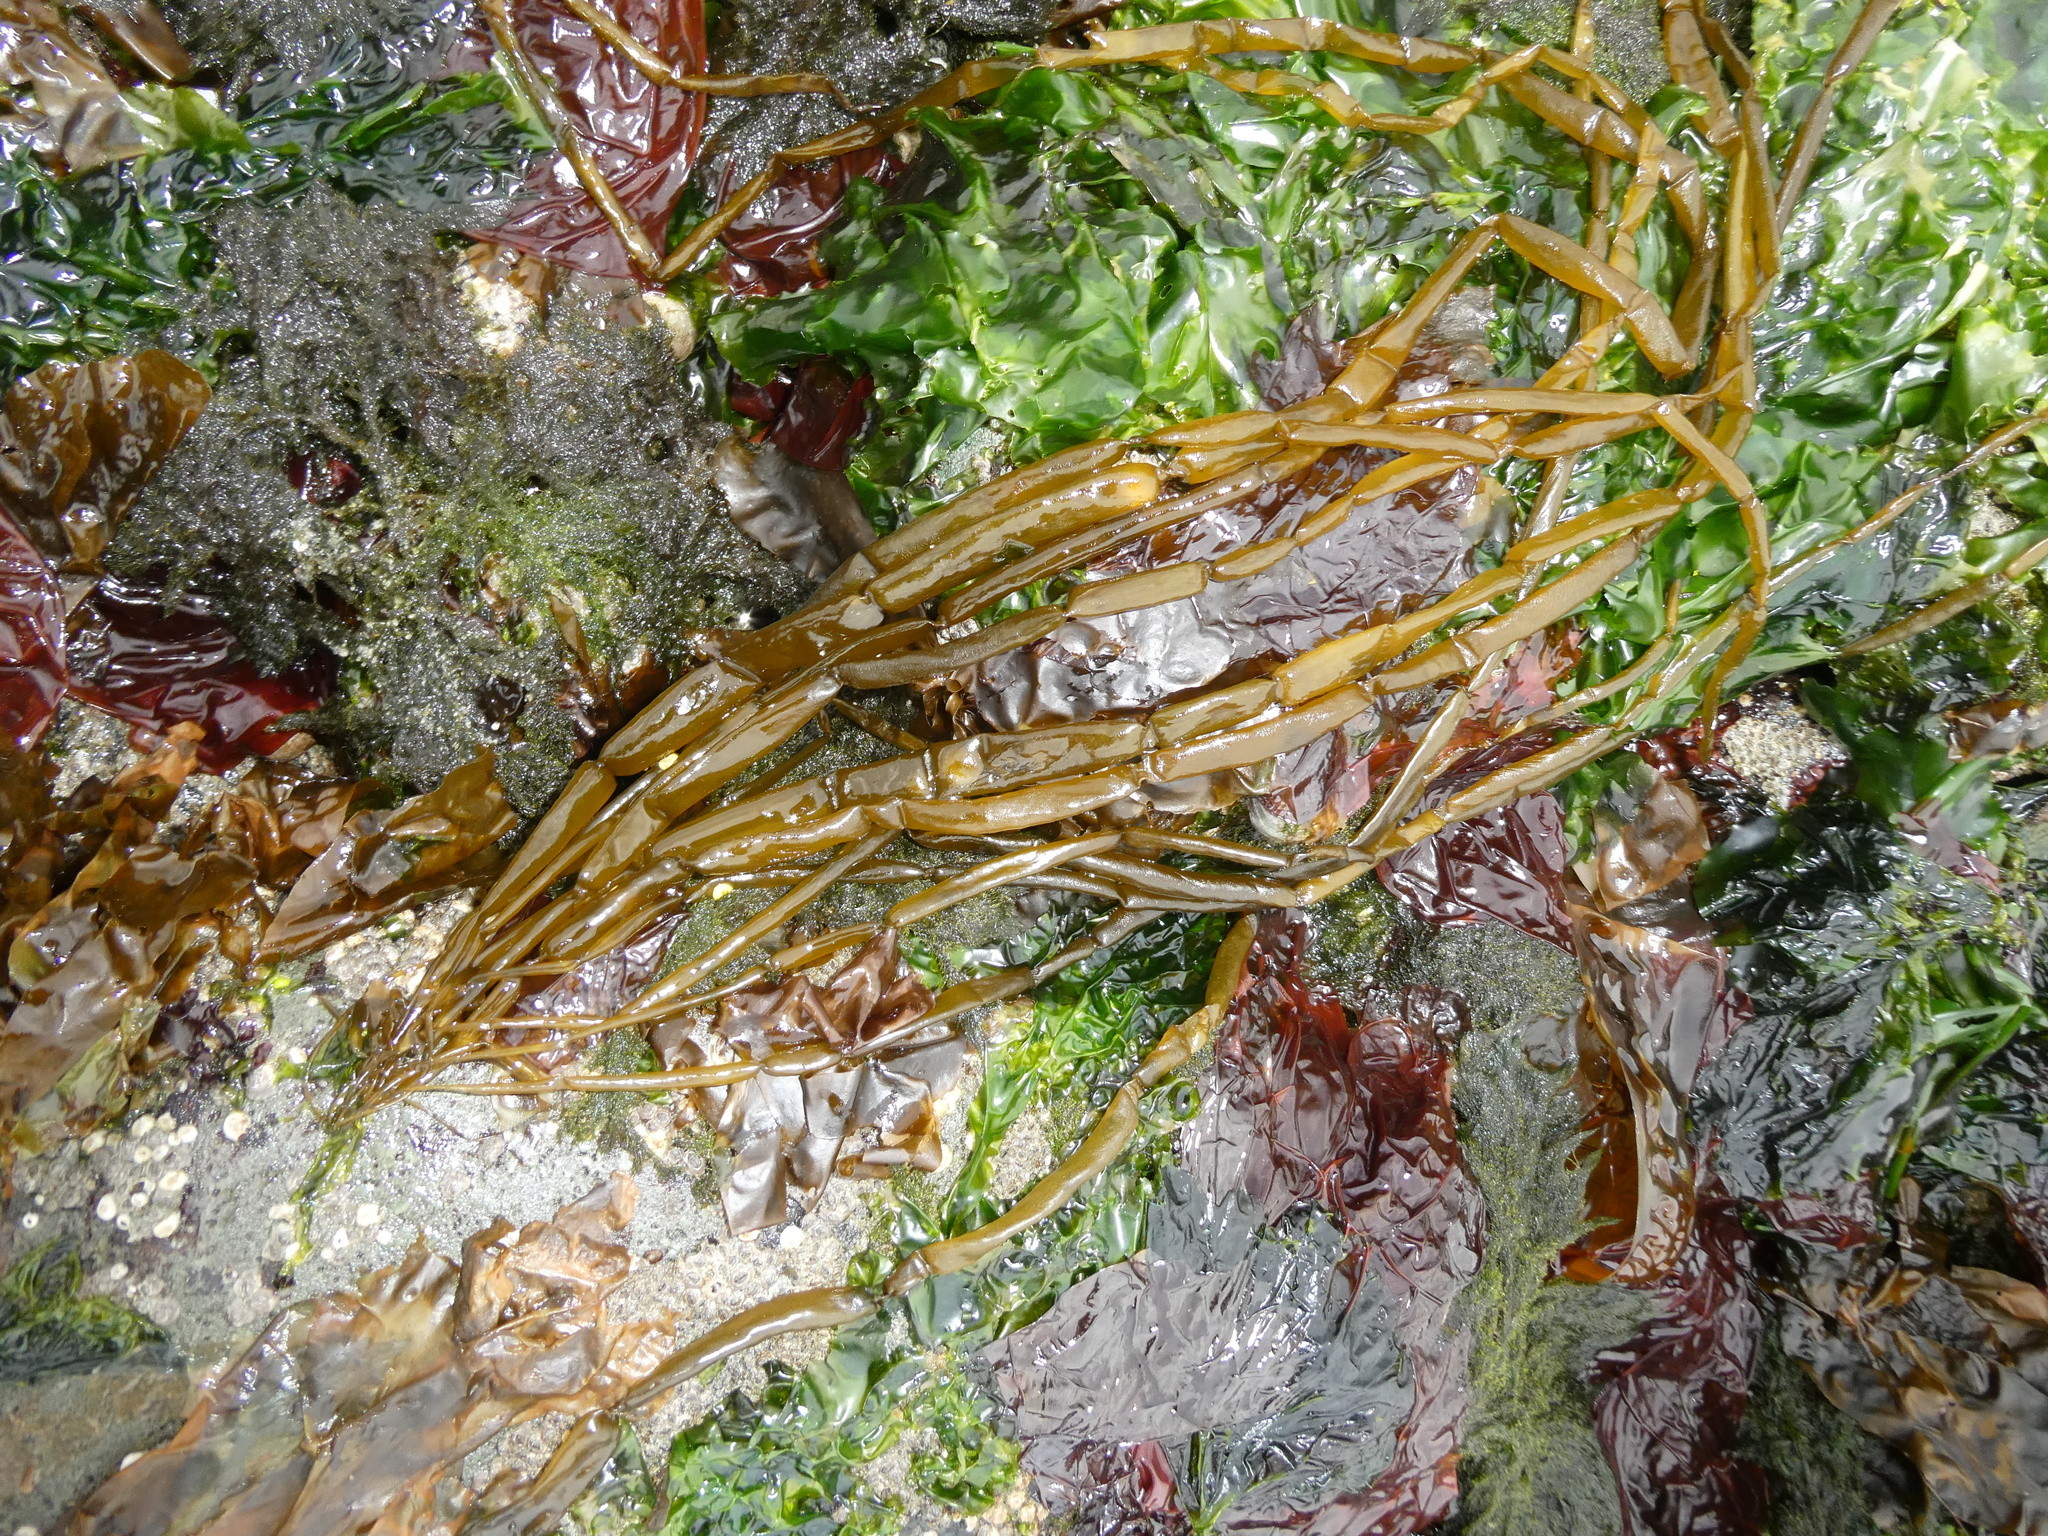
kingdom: Chromista
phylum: Ochrophyta
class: Phaeophyceae
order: Scytosiphonales
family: Scytosiphonaceae
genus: Scytosiphon
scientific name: Scytosiphon lomentaria
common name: Beanweed
